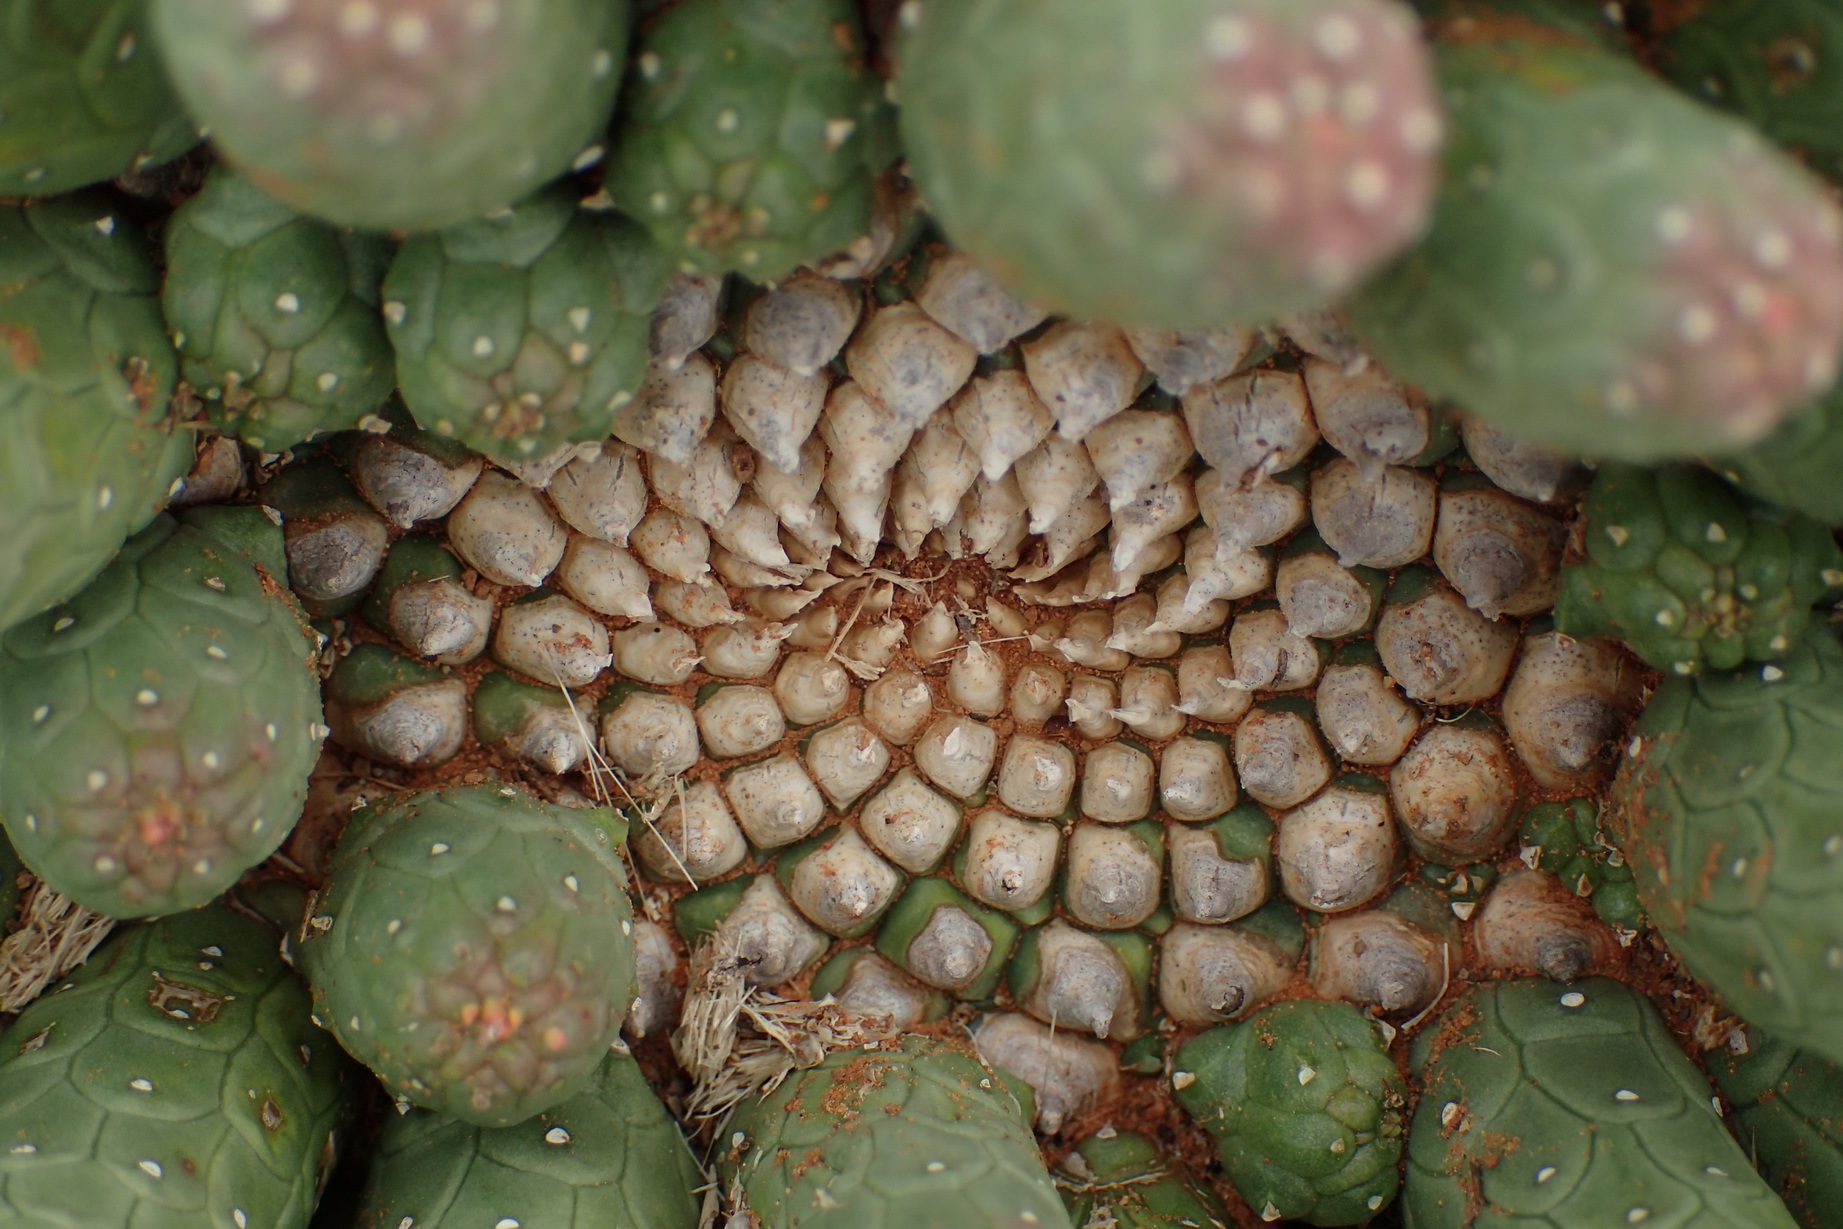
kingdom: Plantae
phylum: Tracheophyta
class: Magnoliopsida
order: Malpighiales
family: Euphorbiaceae
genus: Euphorbia
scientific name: Euphorbia esculenta
